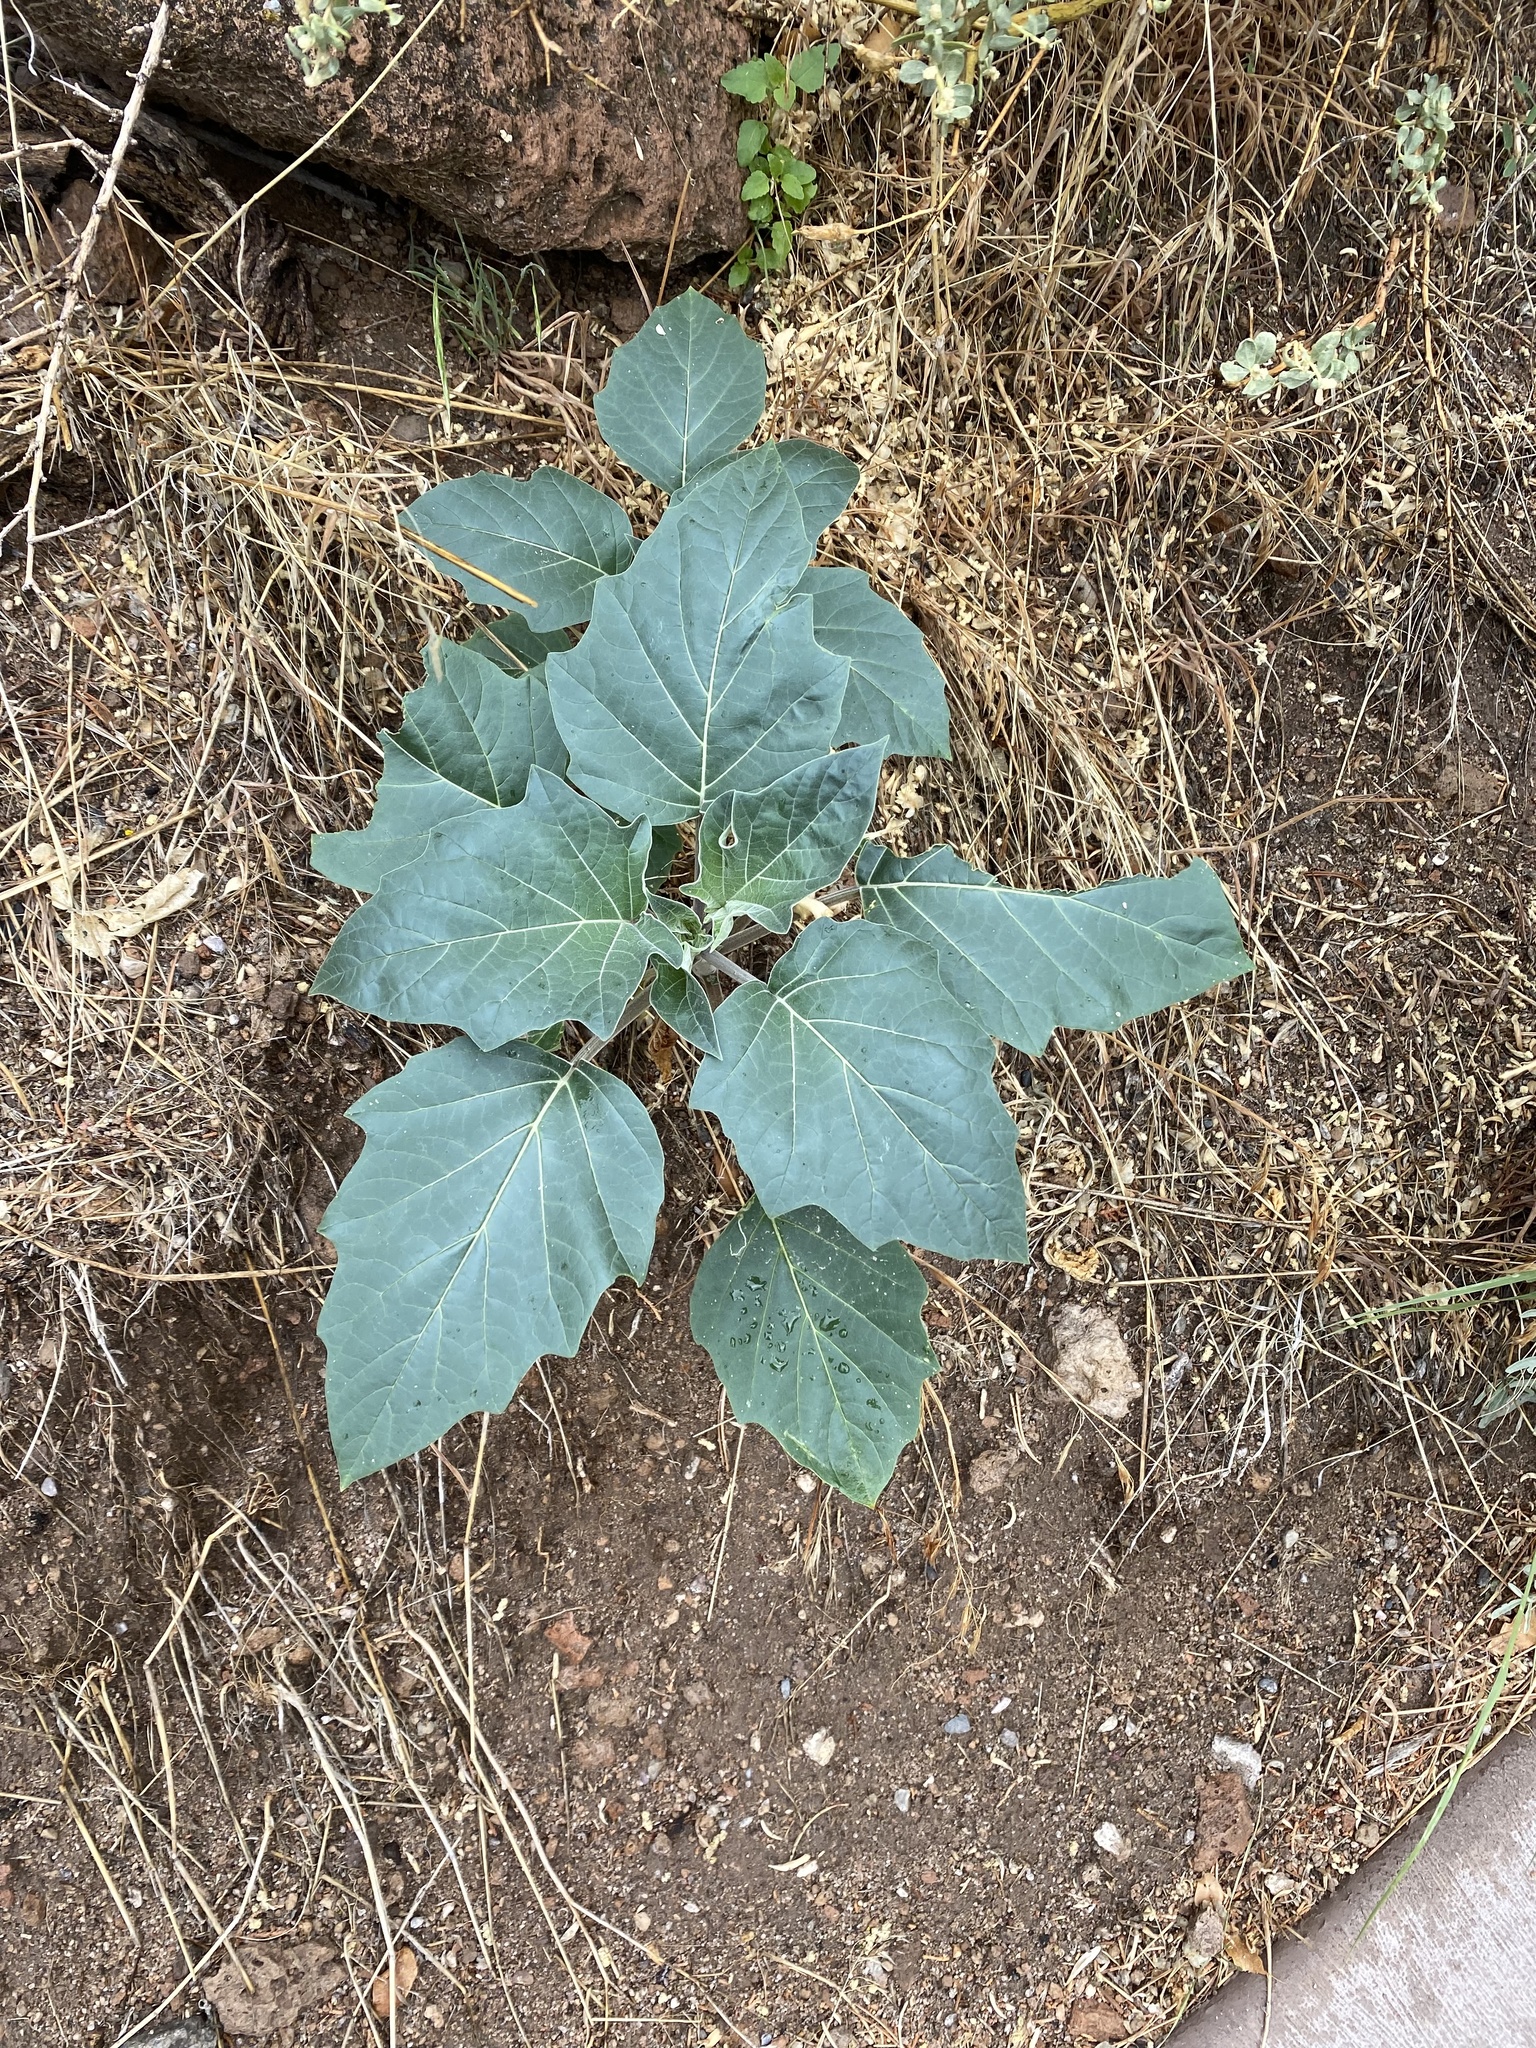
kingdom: Plantae
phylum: Tracheophyta
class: Magnoliopsida
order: Solanales
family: Solanaceae
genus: Datura
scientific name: Datura wrightii
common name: Sacred thorn-apple
